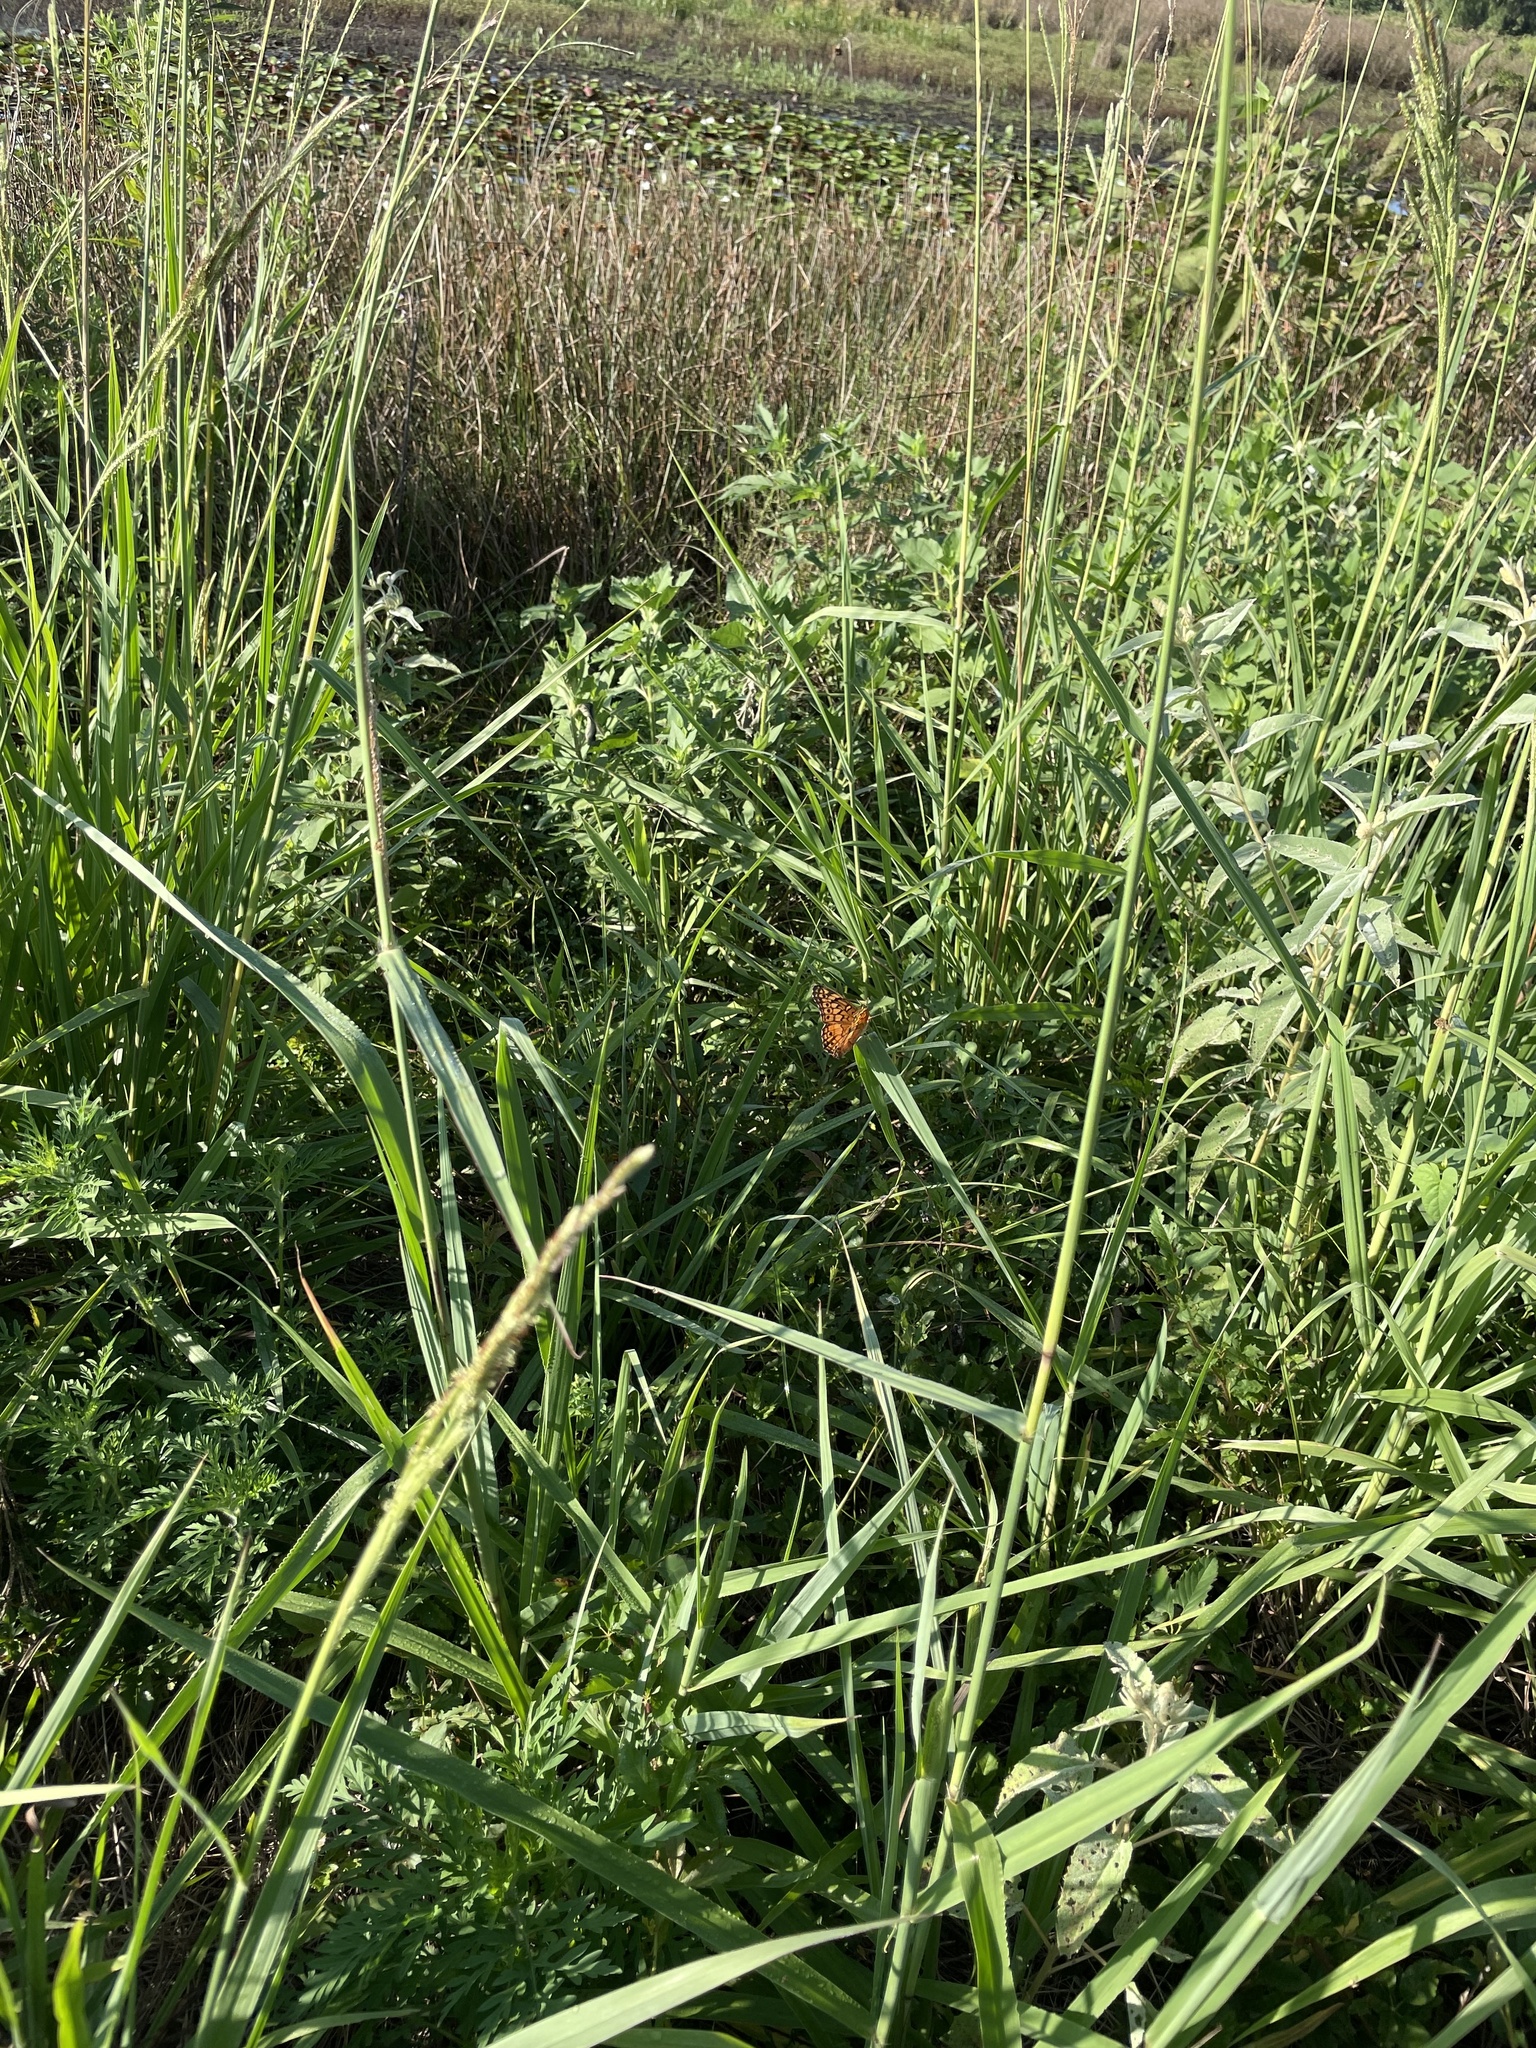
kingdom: Animalia
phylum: Arthropoda
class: Insecta
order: Lepidoptera
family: Nymphalidae
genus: Euptoieta
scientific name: Euptoieta claudia
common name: Variegated fritillary
